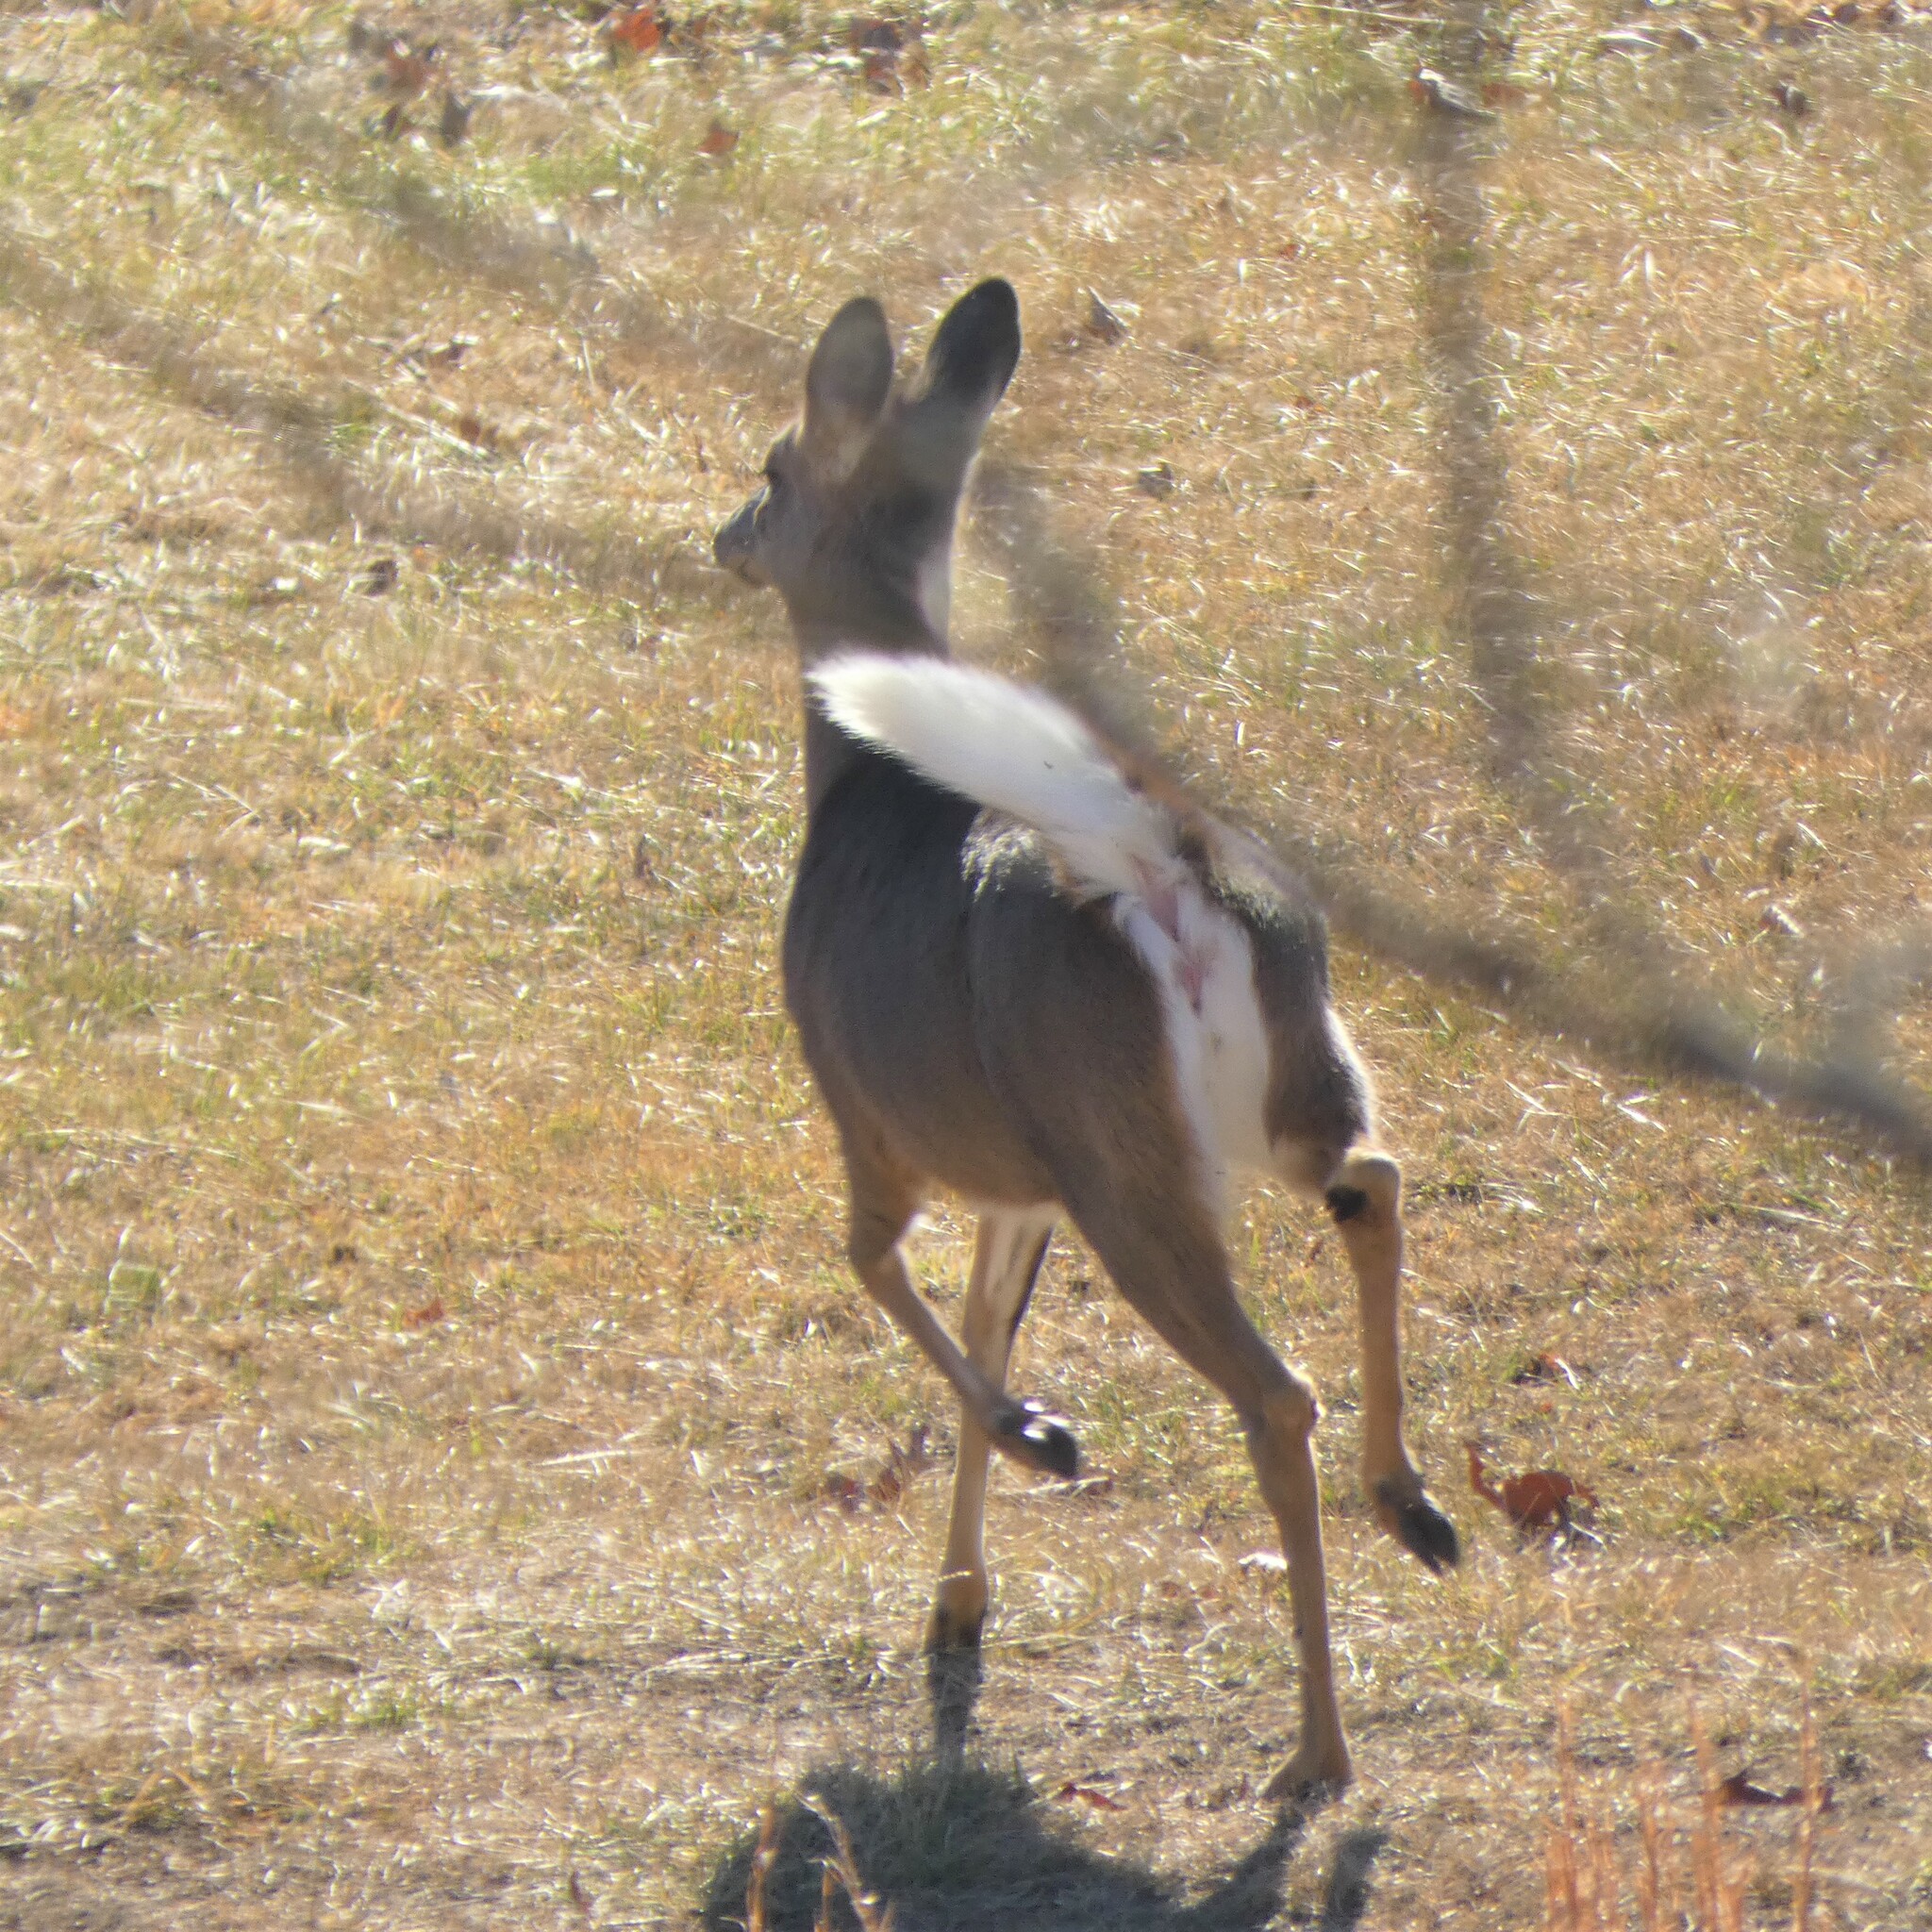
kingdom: Animalia
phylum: Chordata
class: Mammalia
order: Artiodactyla
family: Cervidae
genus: Odocoileus
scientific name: Odocoileus virginianus
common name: White-tailed deer
